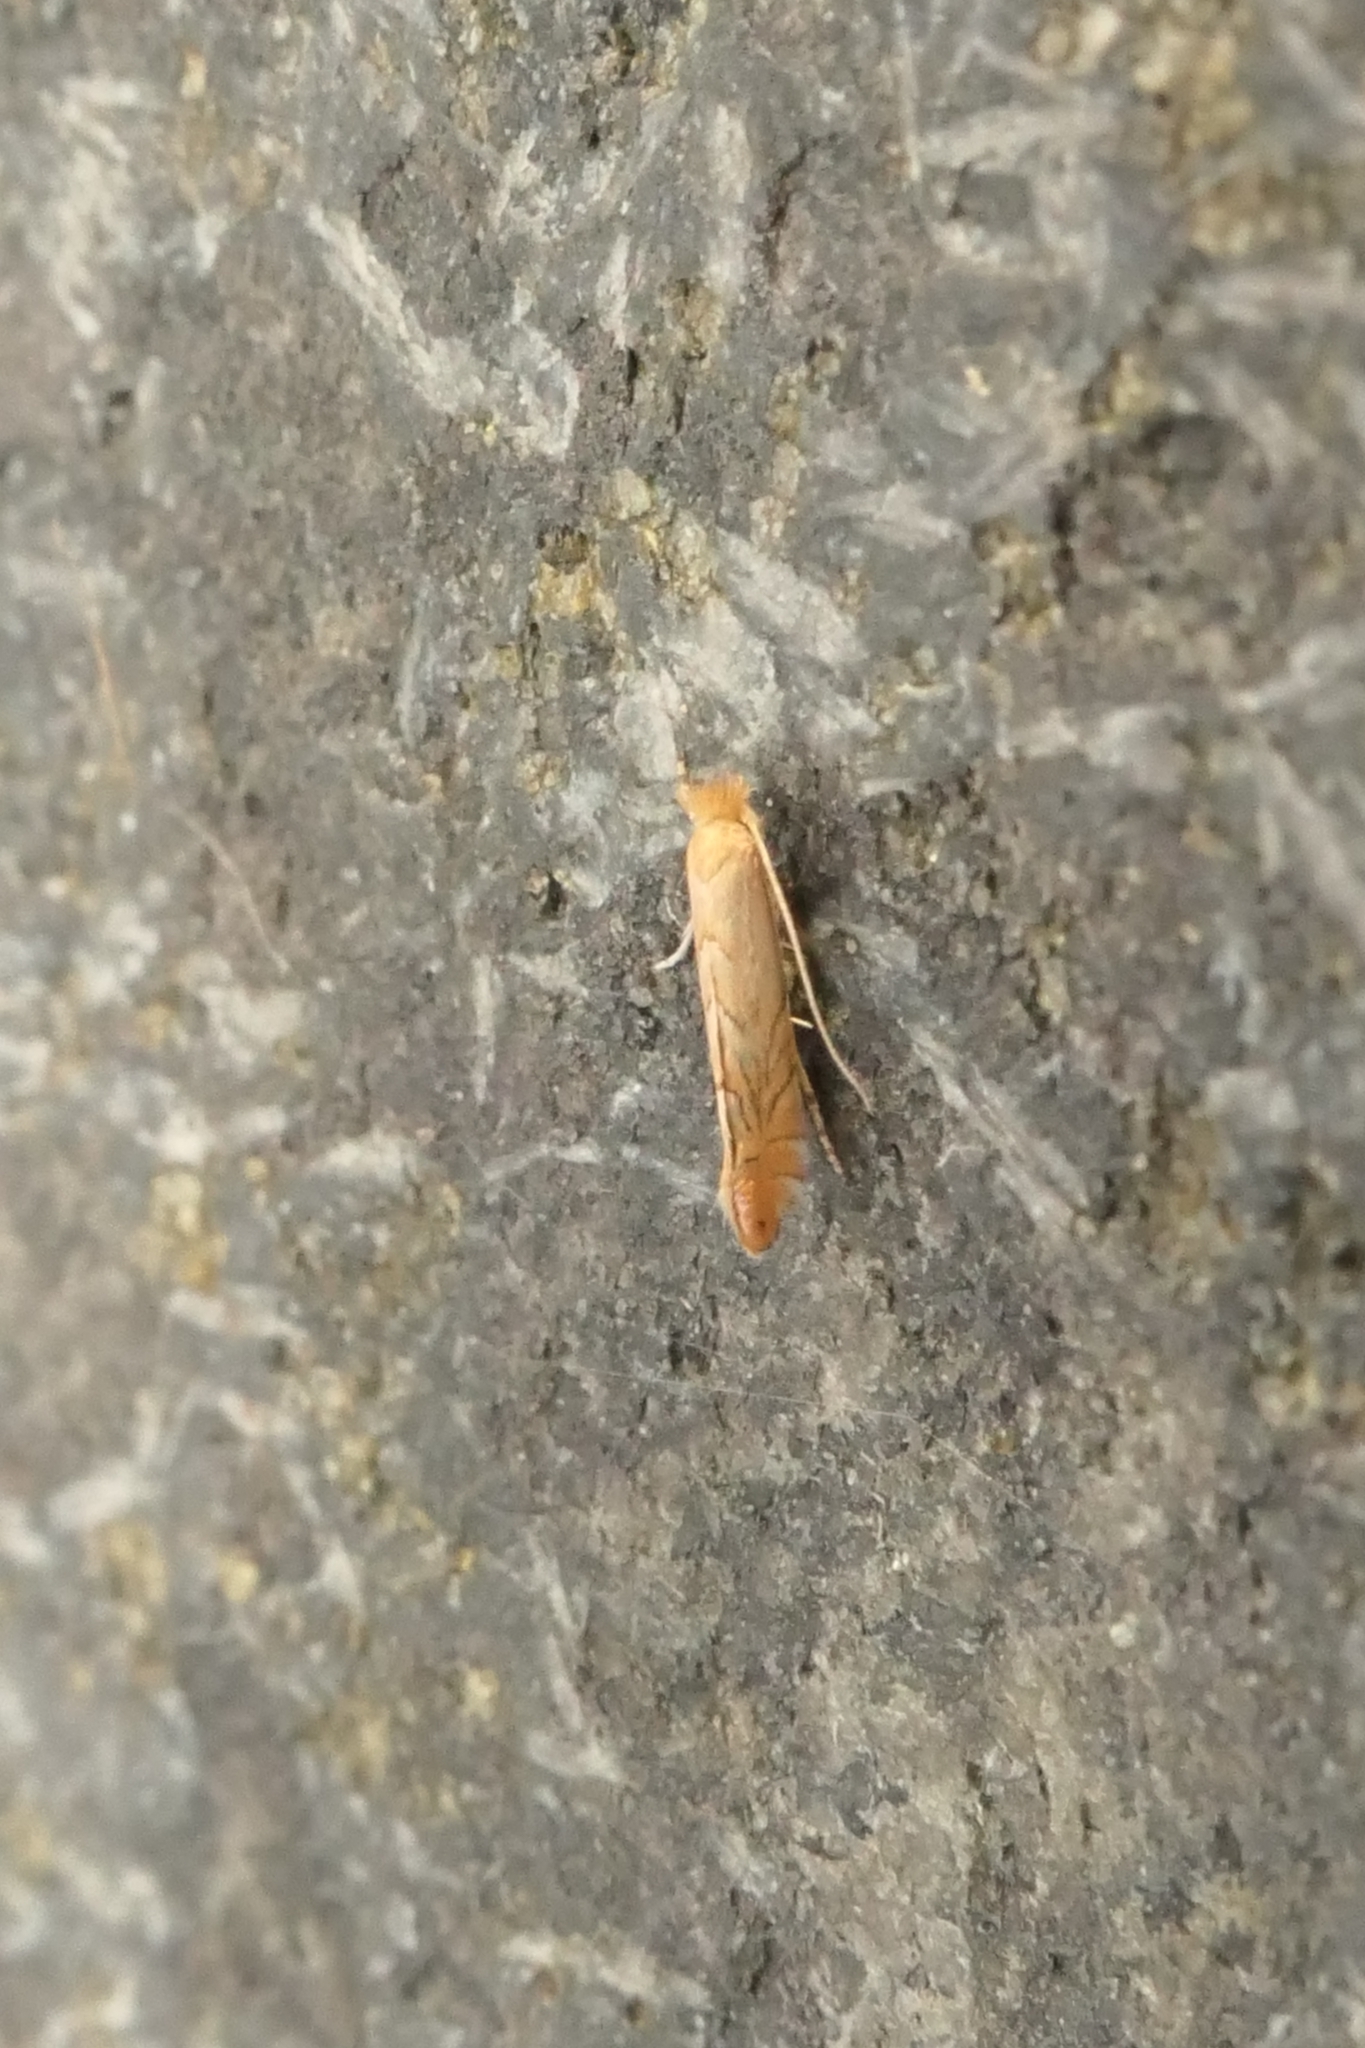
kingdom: Animalia
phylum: Arthropoda
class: Insecta
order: Lepidoptera
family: Gracillariidae
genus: Phyllonorycter
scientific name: Phyllonorycter messaniella
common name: Garden midget
